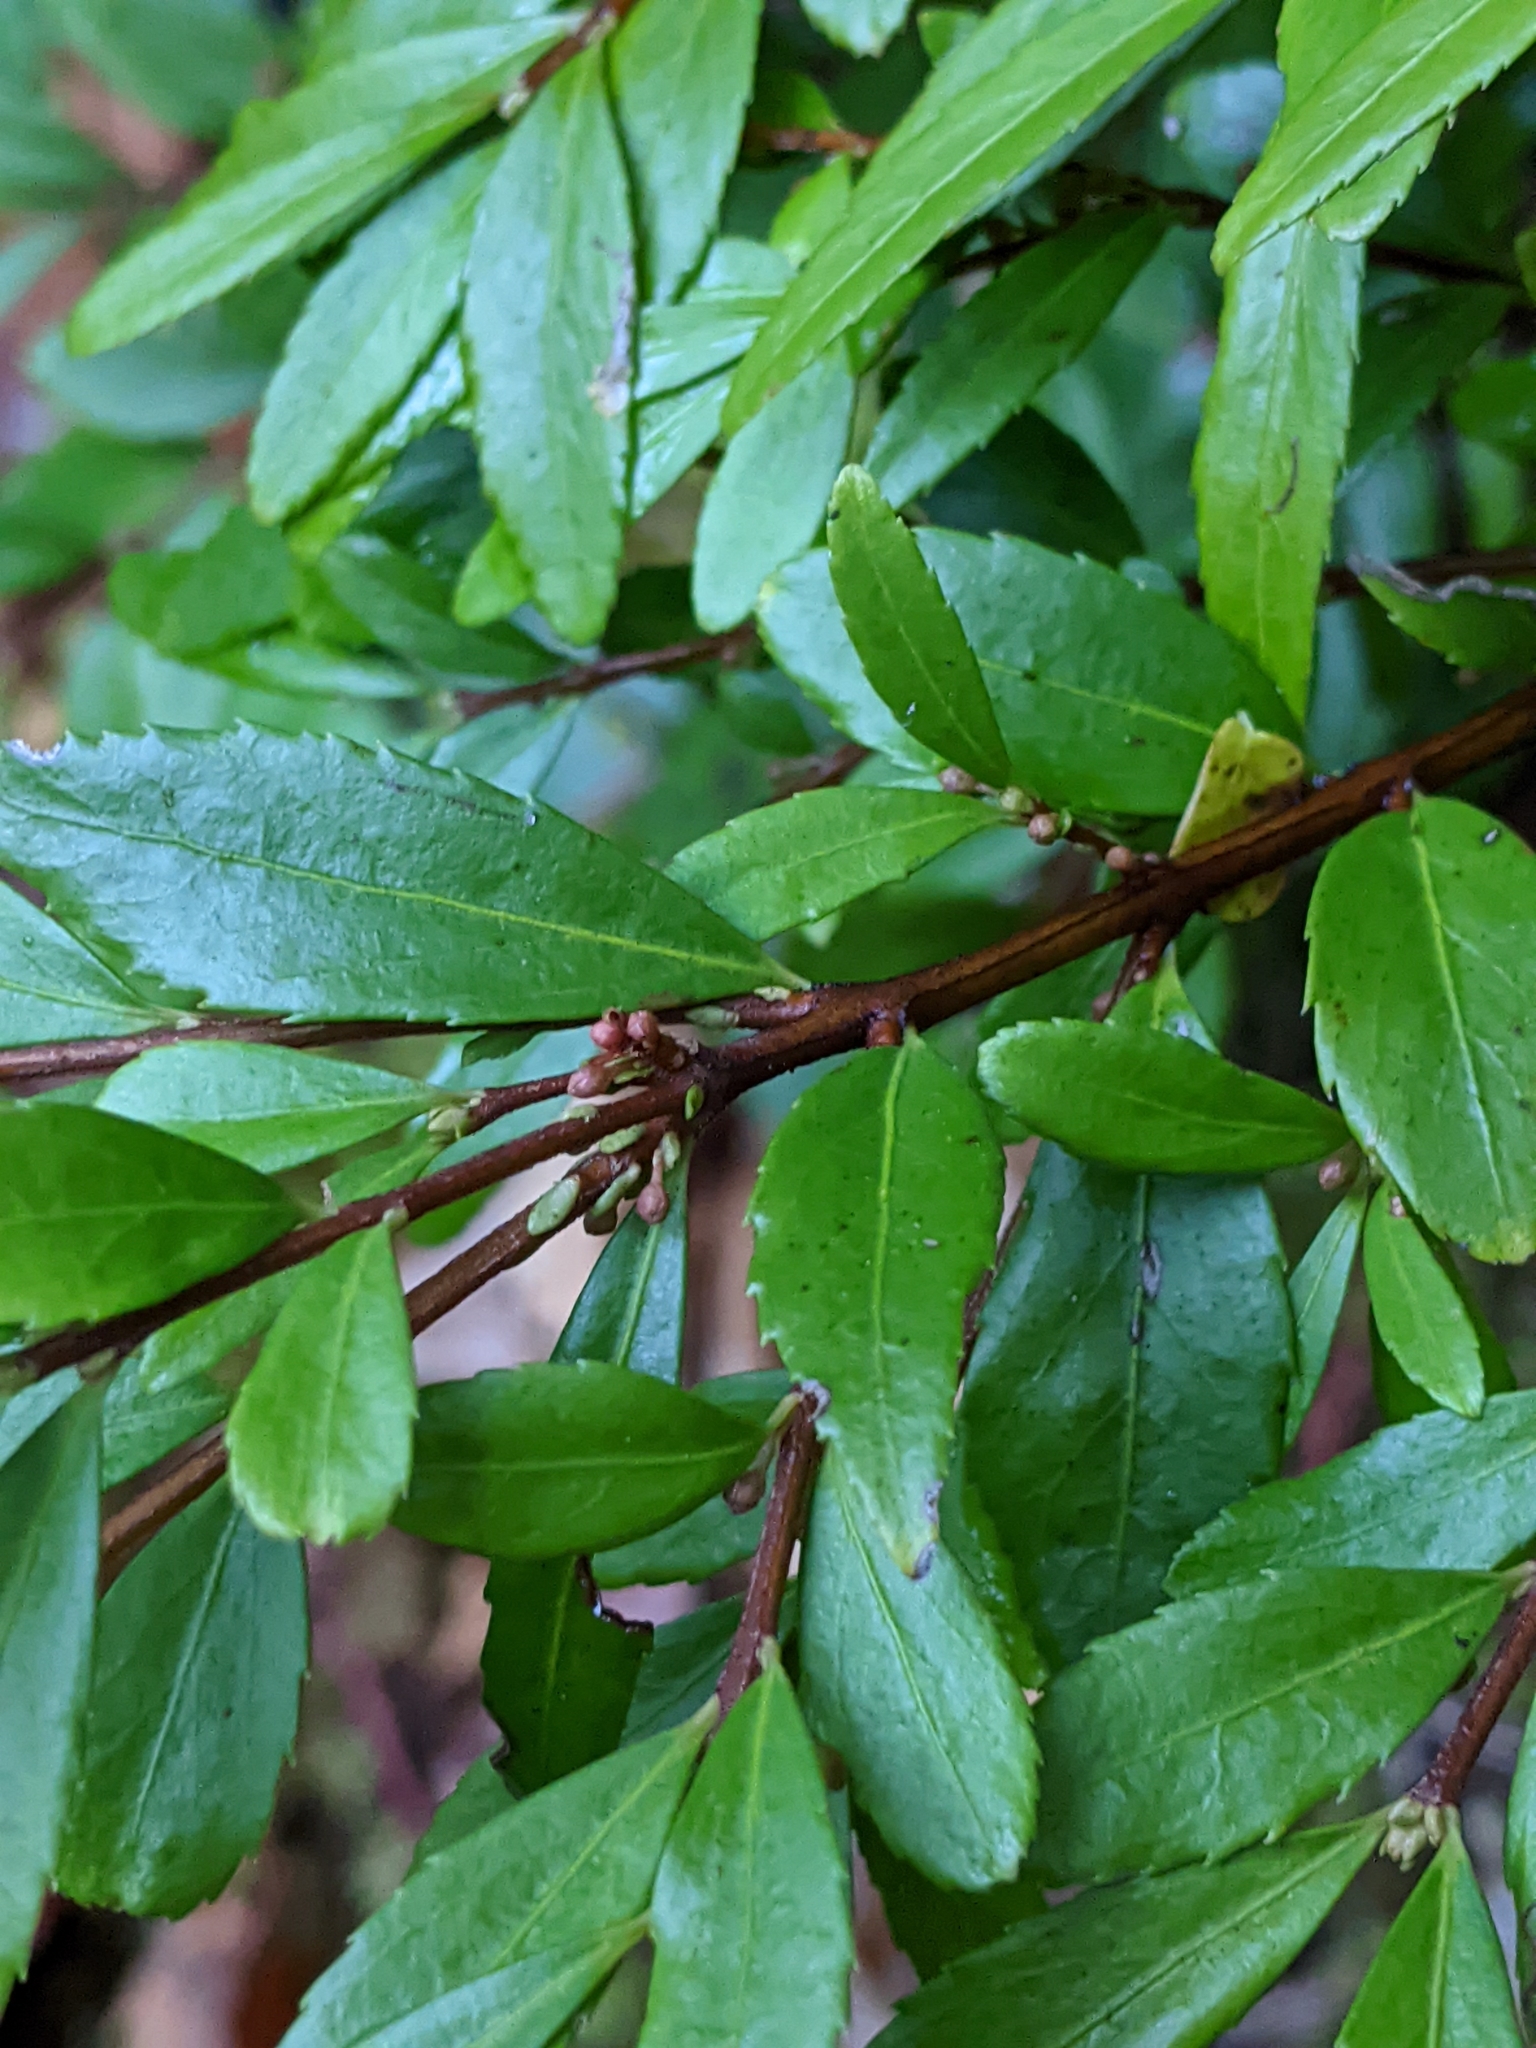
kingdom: Plantae
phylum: Tracheophyta
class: Magnoliopsida
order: Celastrales
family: Celastraceae
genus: Paxistima
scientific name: Paxistima myrsinites
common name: Mountain-lover
